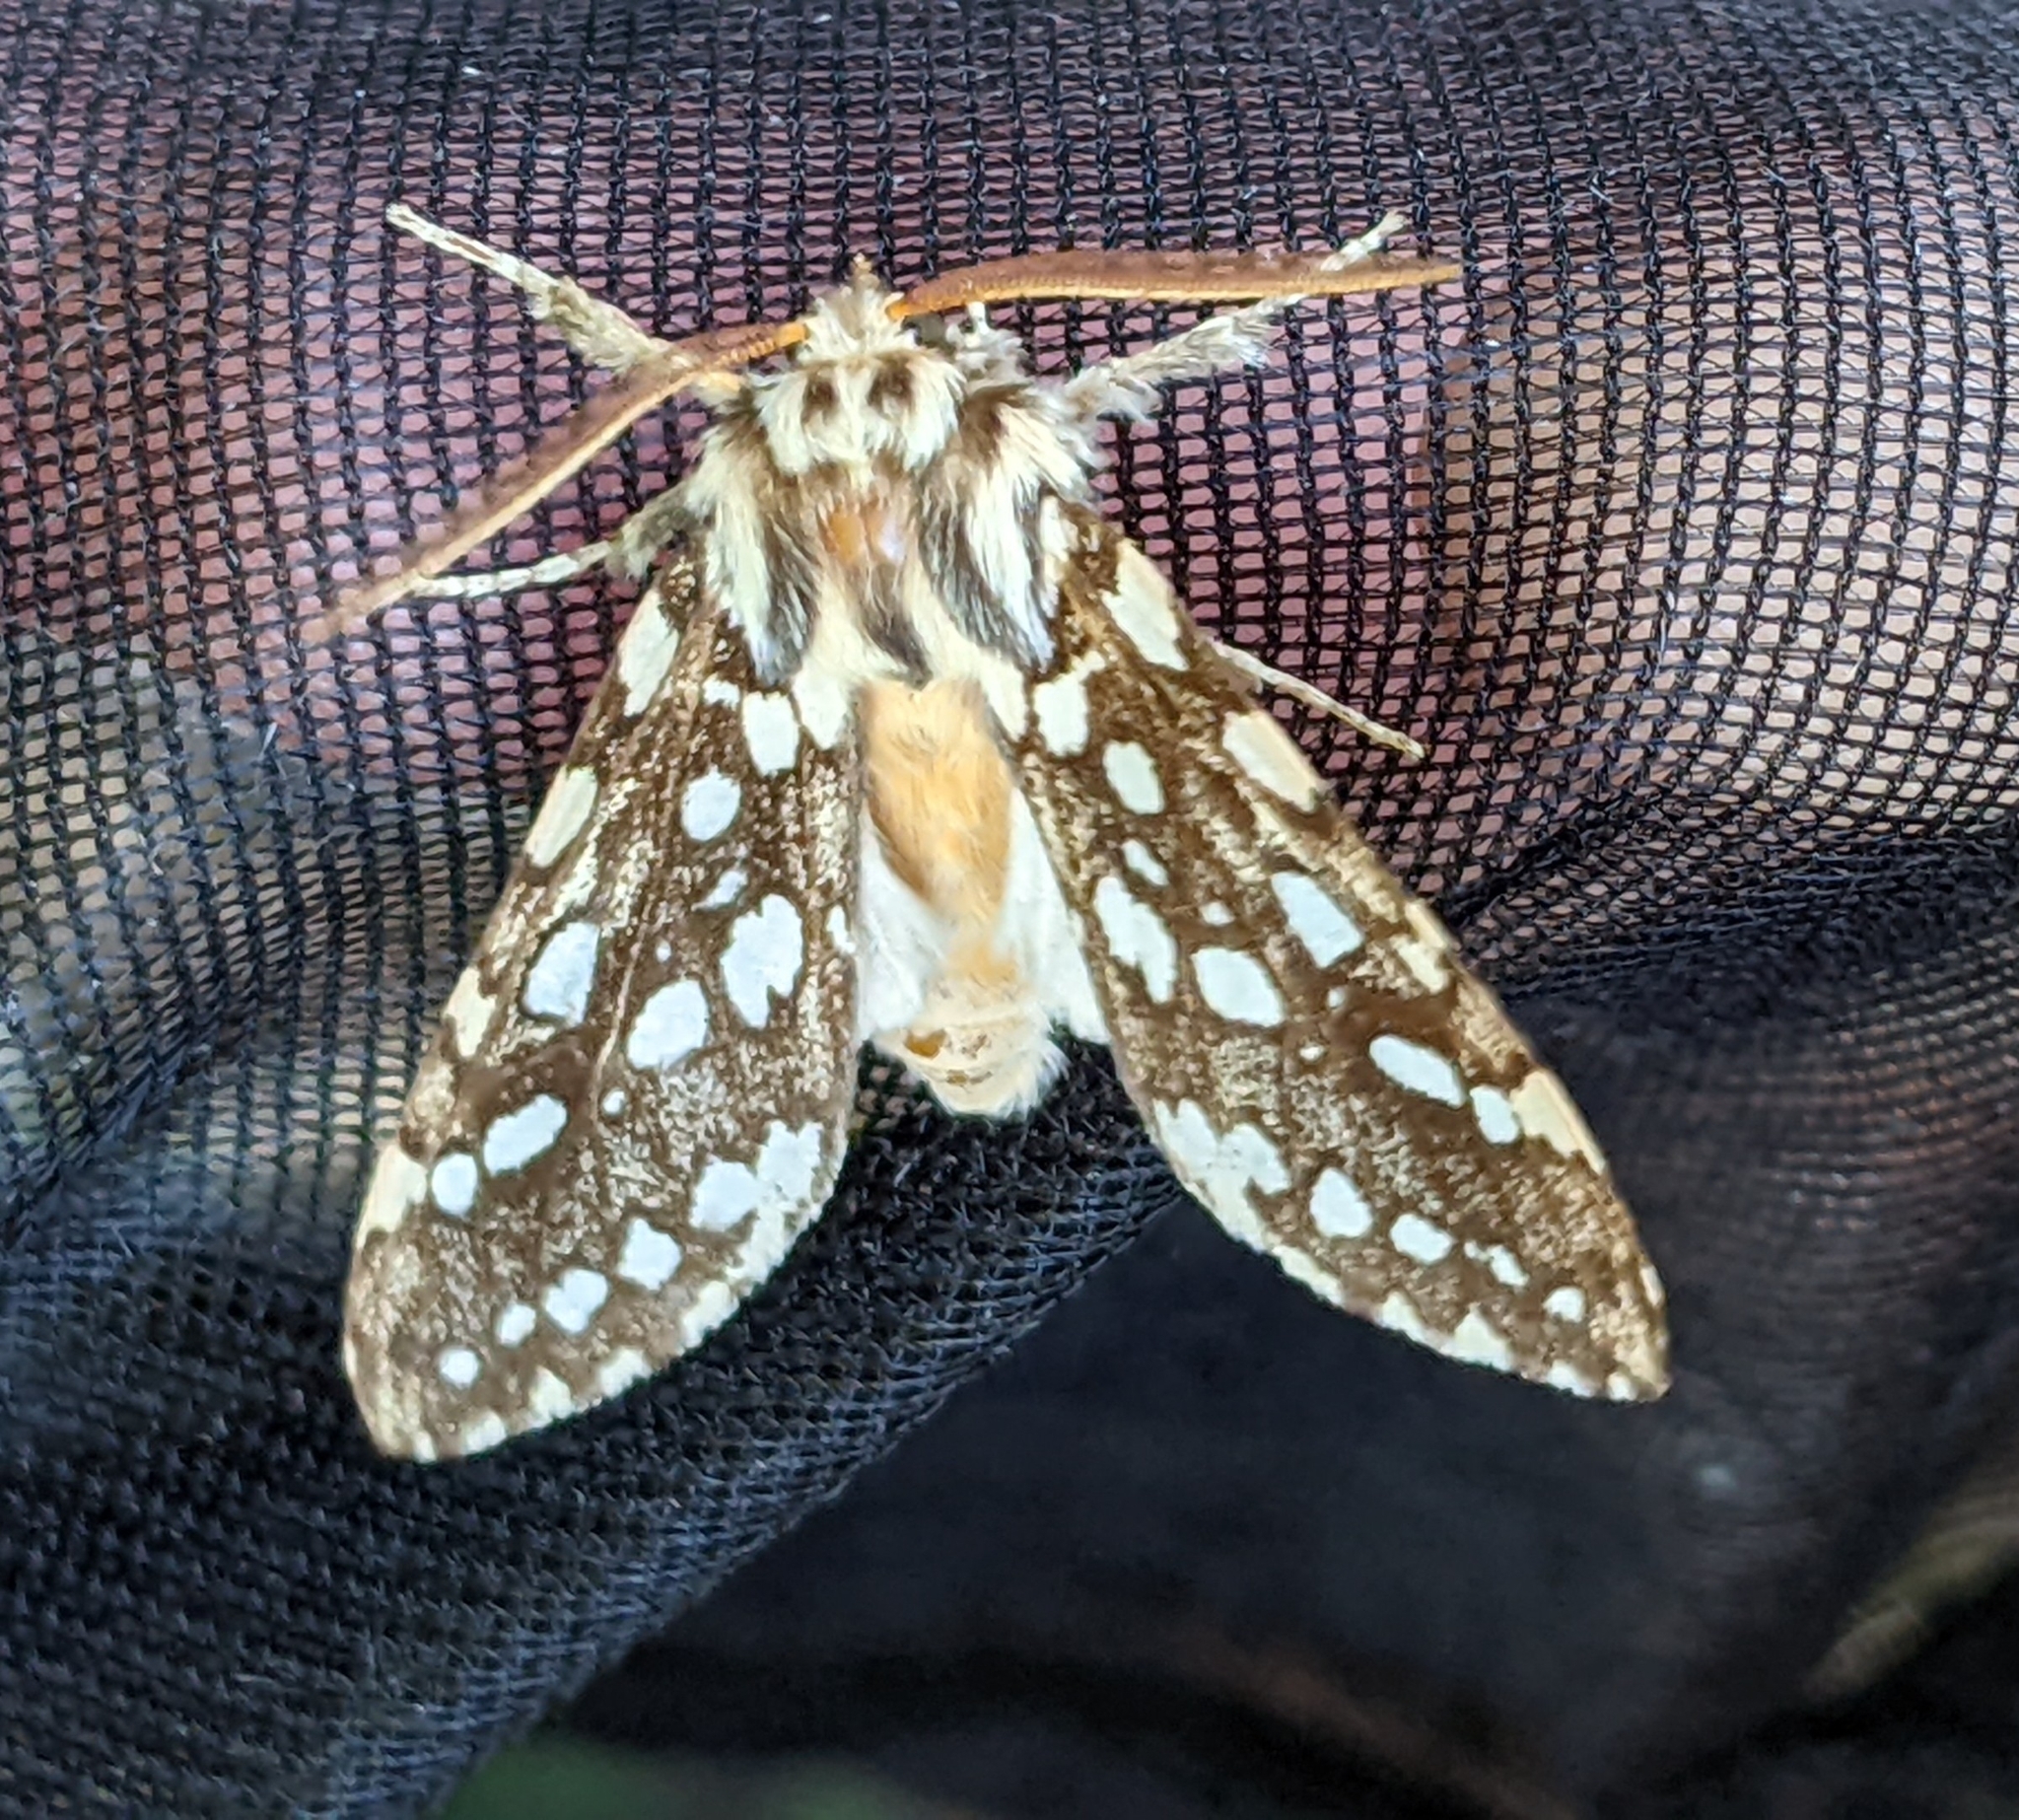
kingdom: Animalia
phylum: Arthropoda
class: Insecta
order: Lepidoptera
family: Erebidae
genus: Lophocampa
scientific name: Lophocampa argentata
